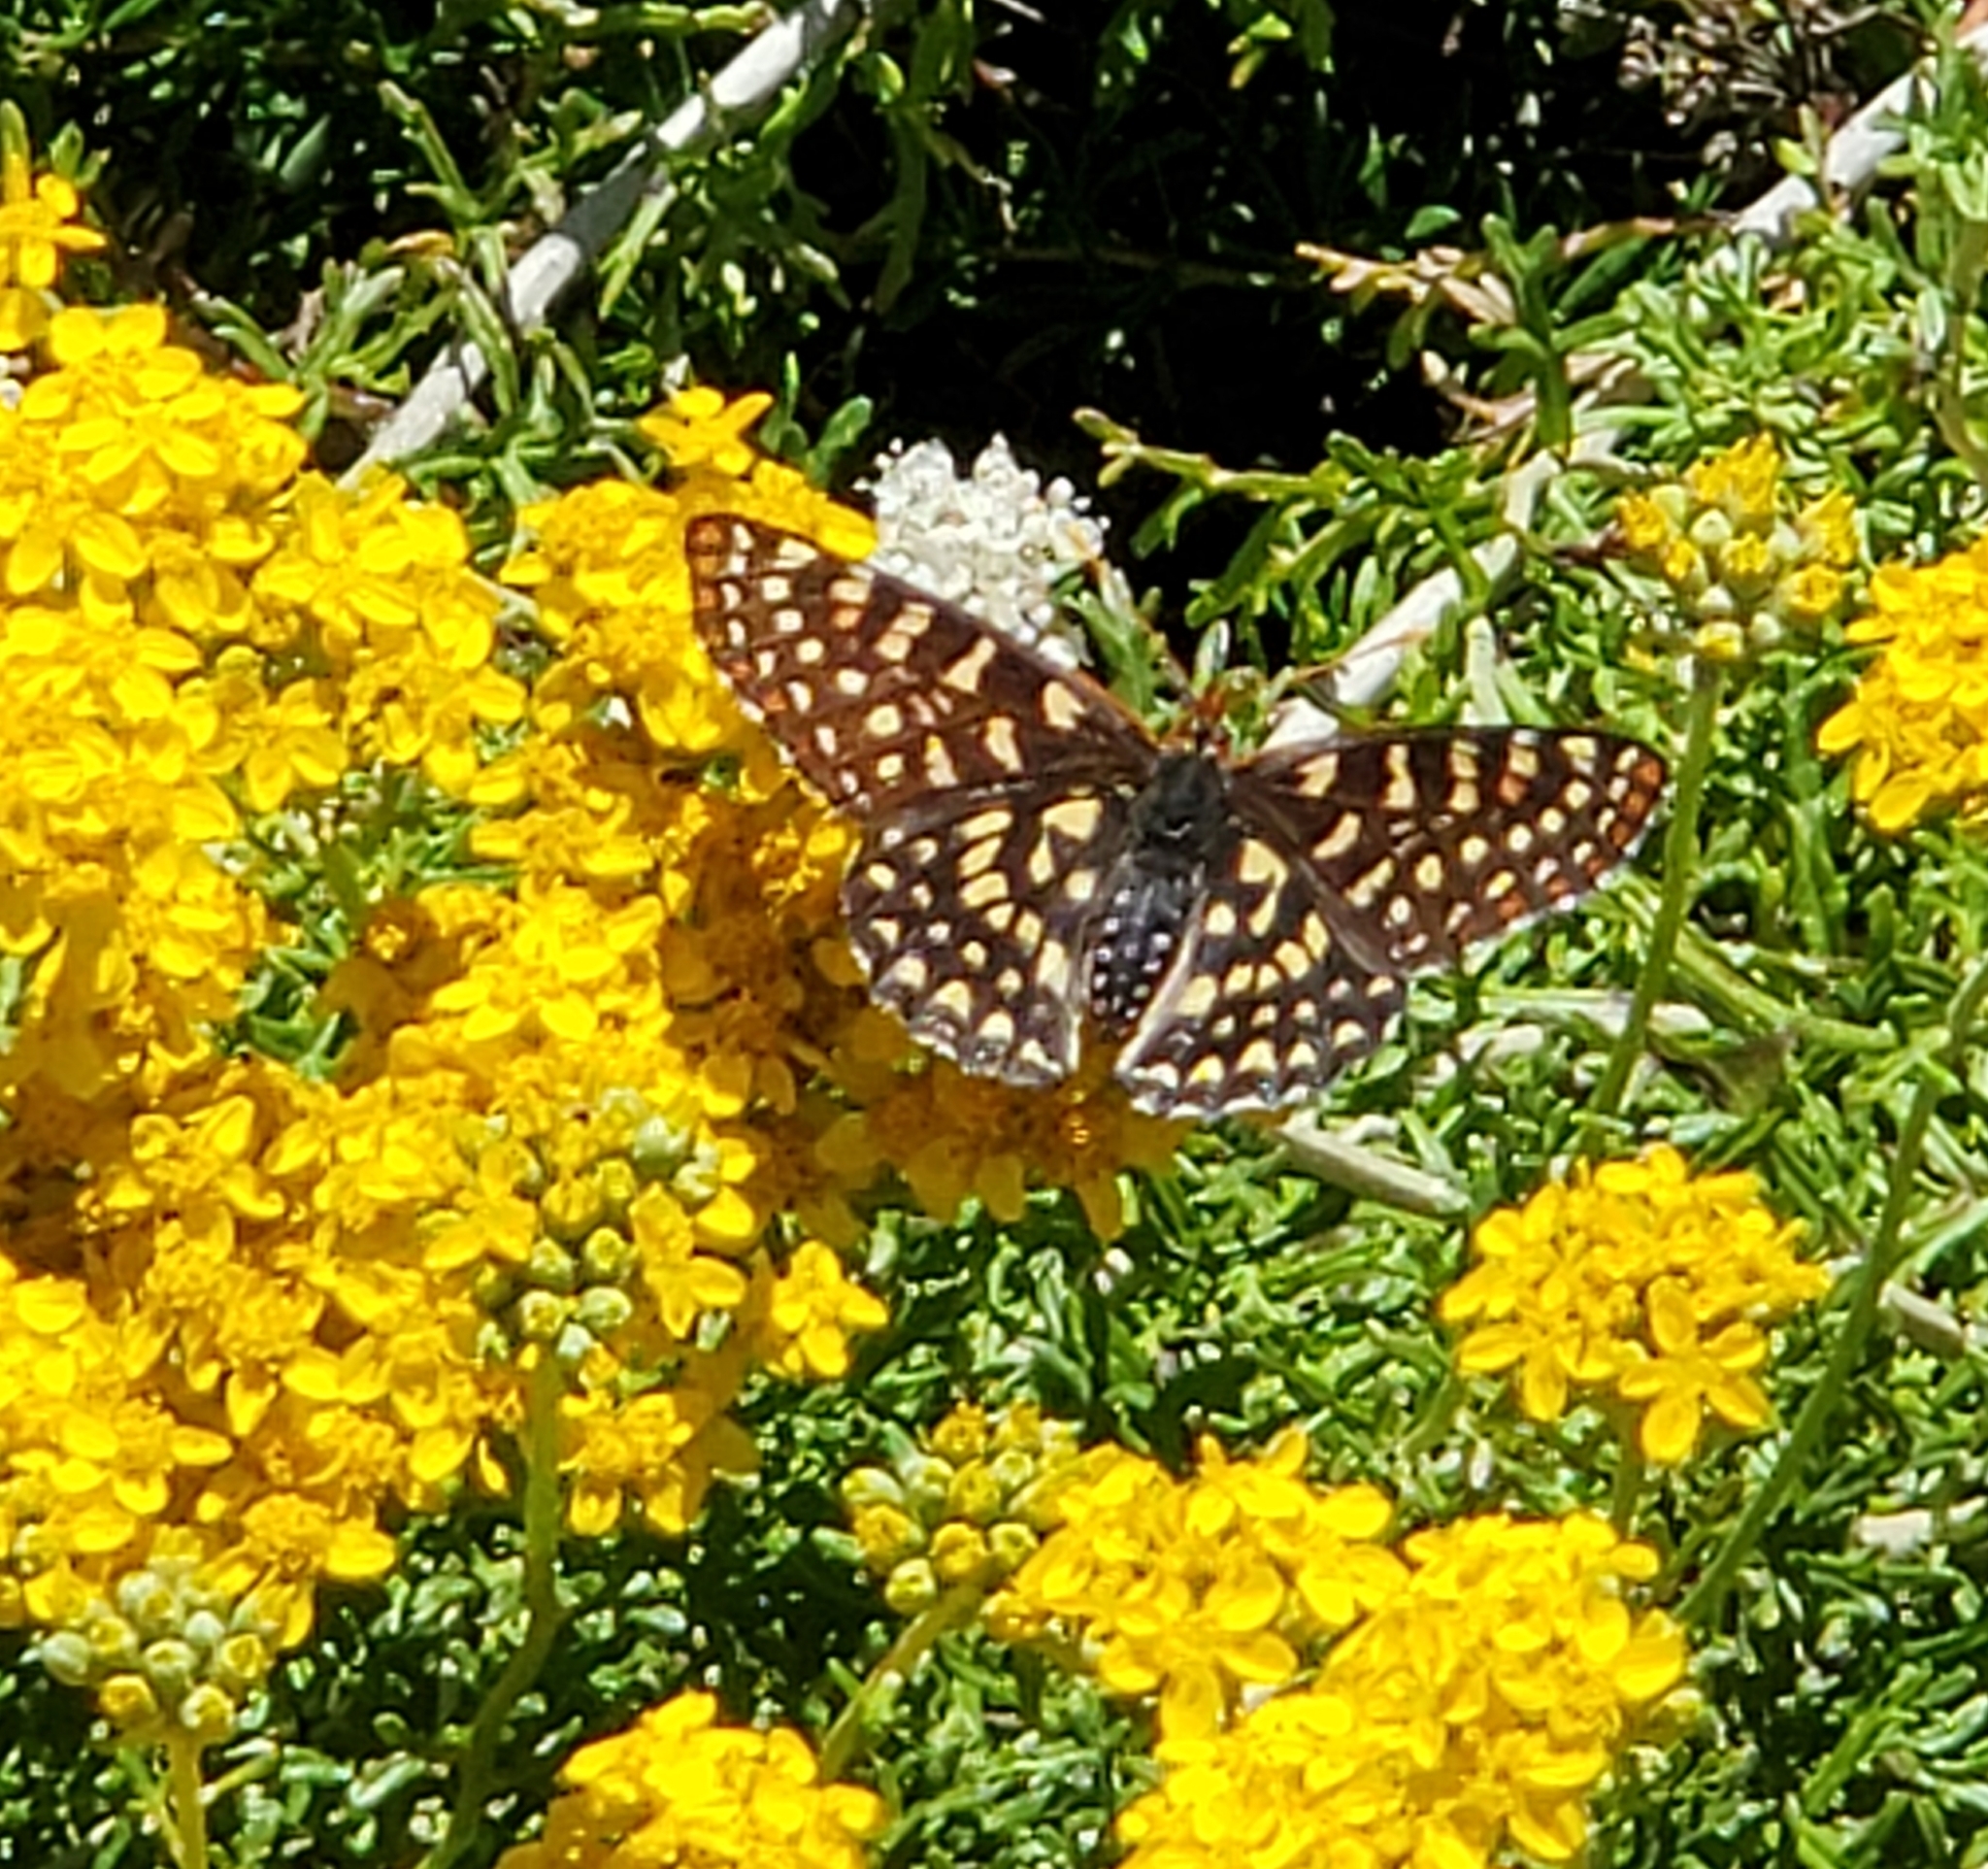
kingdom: Plantae
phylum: Tracheophyta
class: Magnoliopsida
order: Asterales
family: Asteraceae
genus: Eriophyllum
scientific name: Eriophyllum confertiflorum
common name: Golden-yarrow
